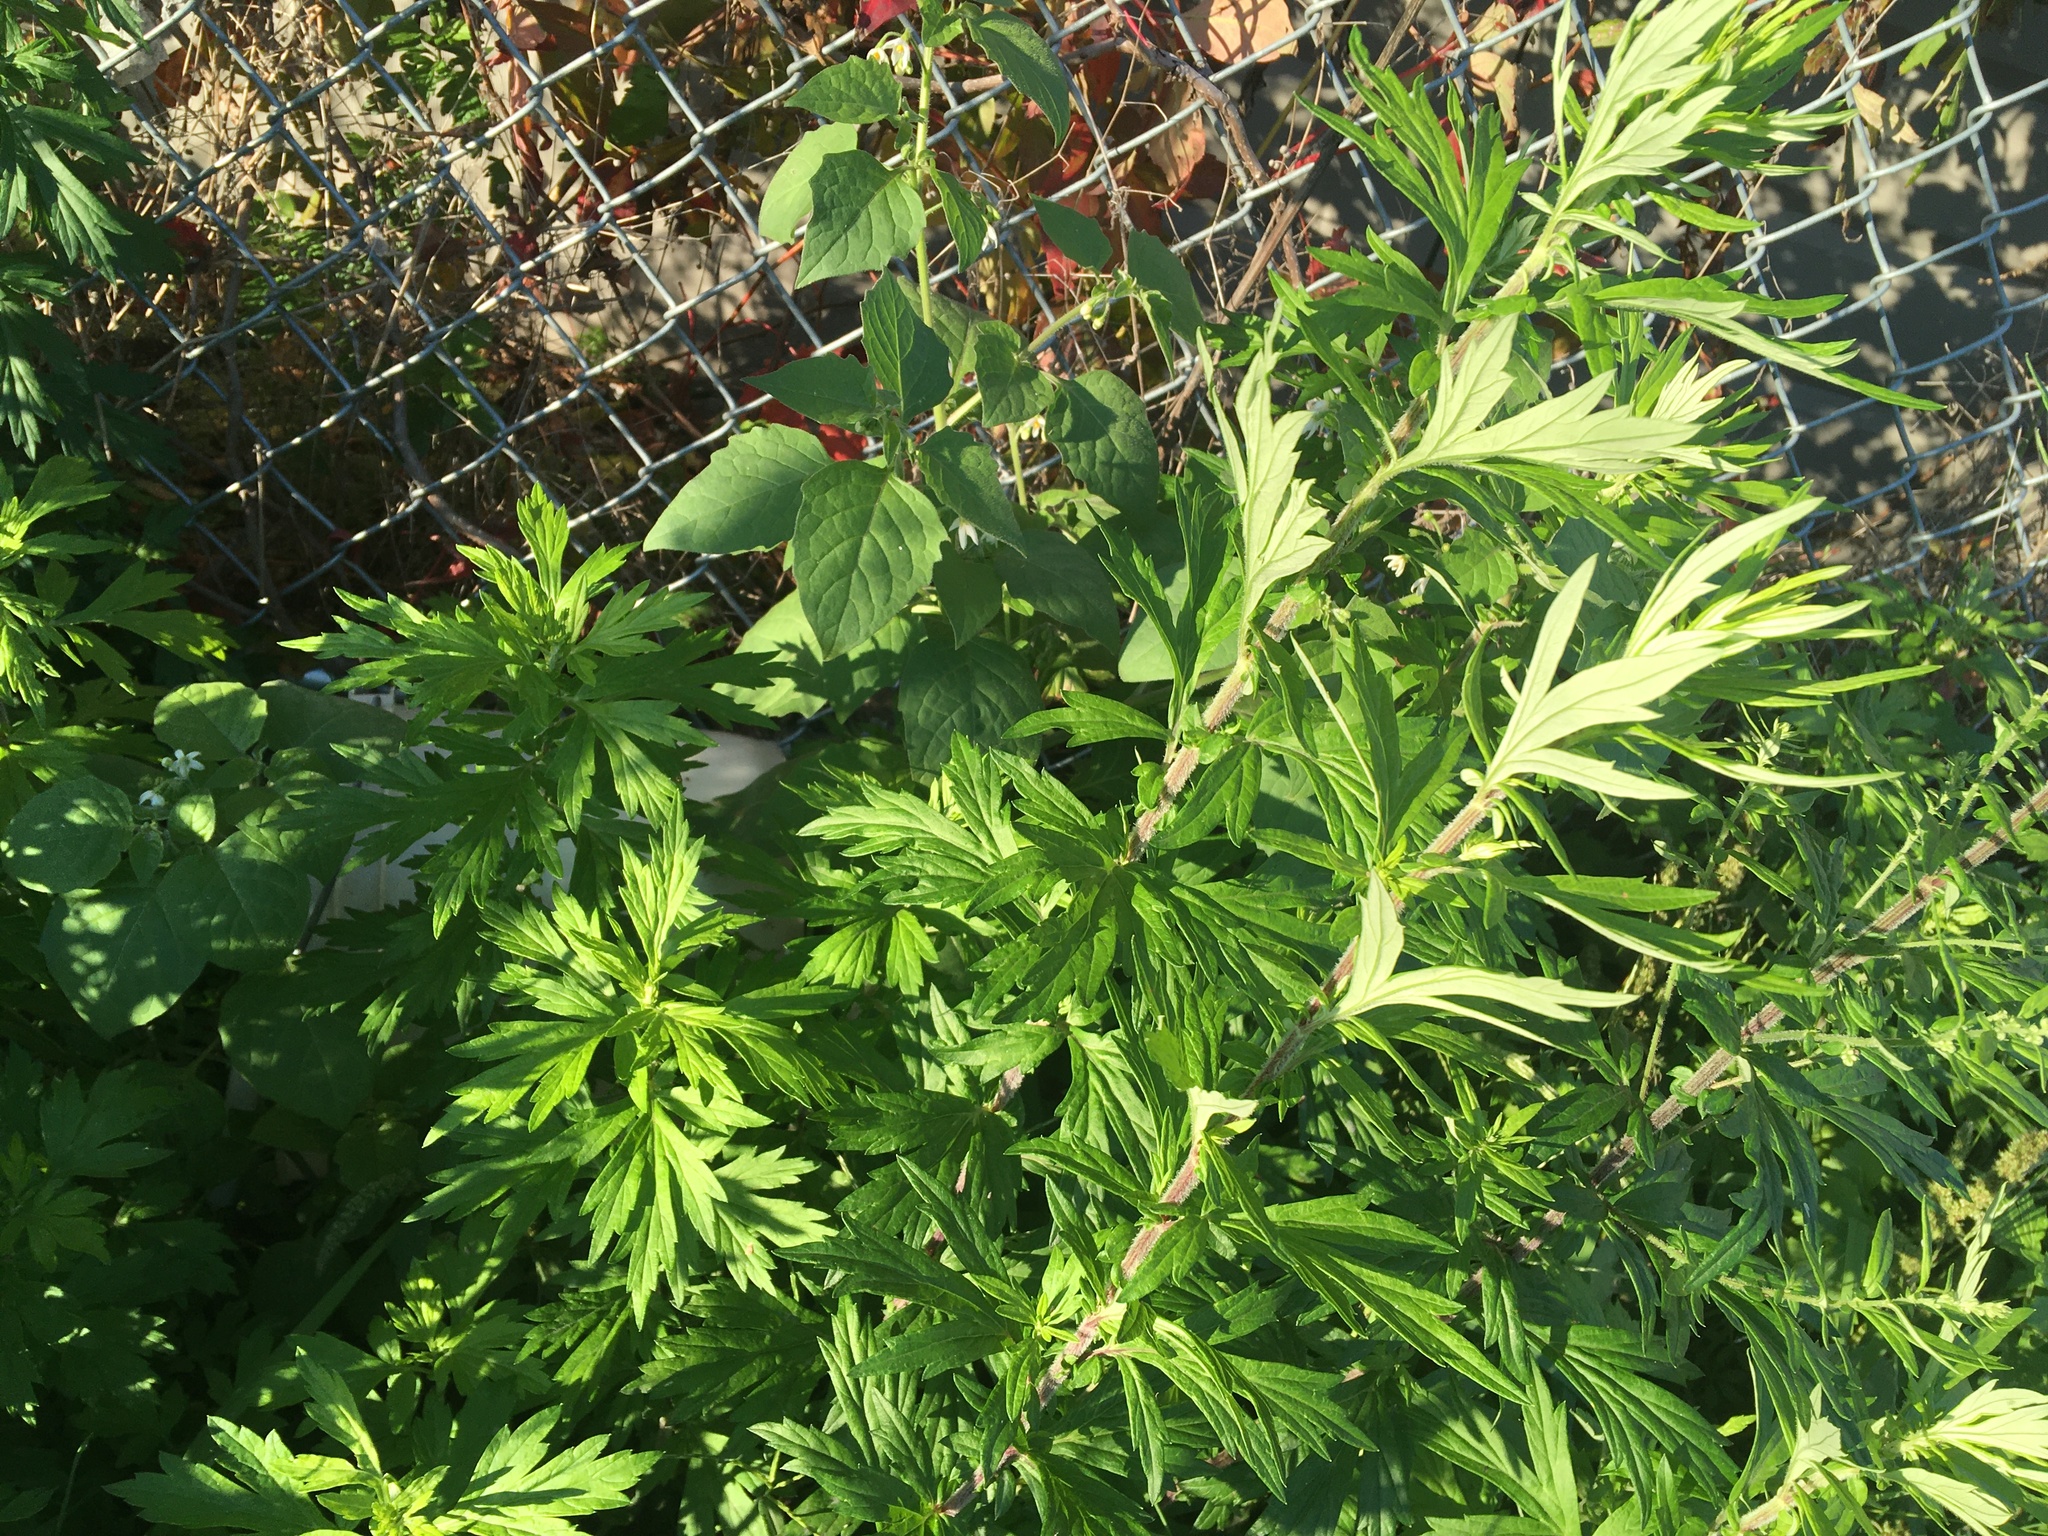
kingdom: Plantae
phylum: Tracheophyta
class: Magnoliopsida
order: Asterales
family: Asteraceae
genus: Artemisia
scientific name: Artemisia vulgaris
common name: Mugwort
